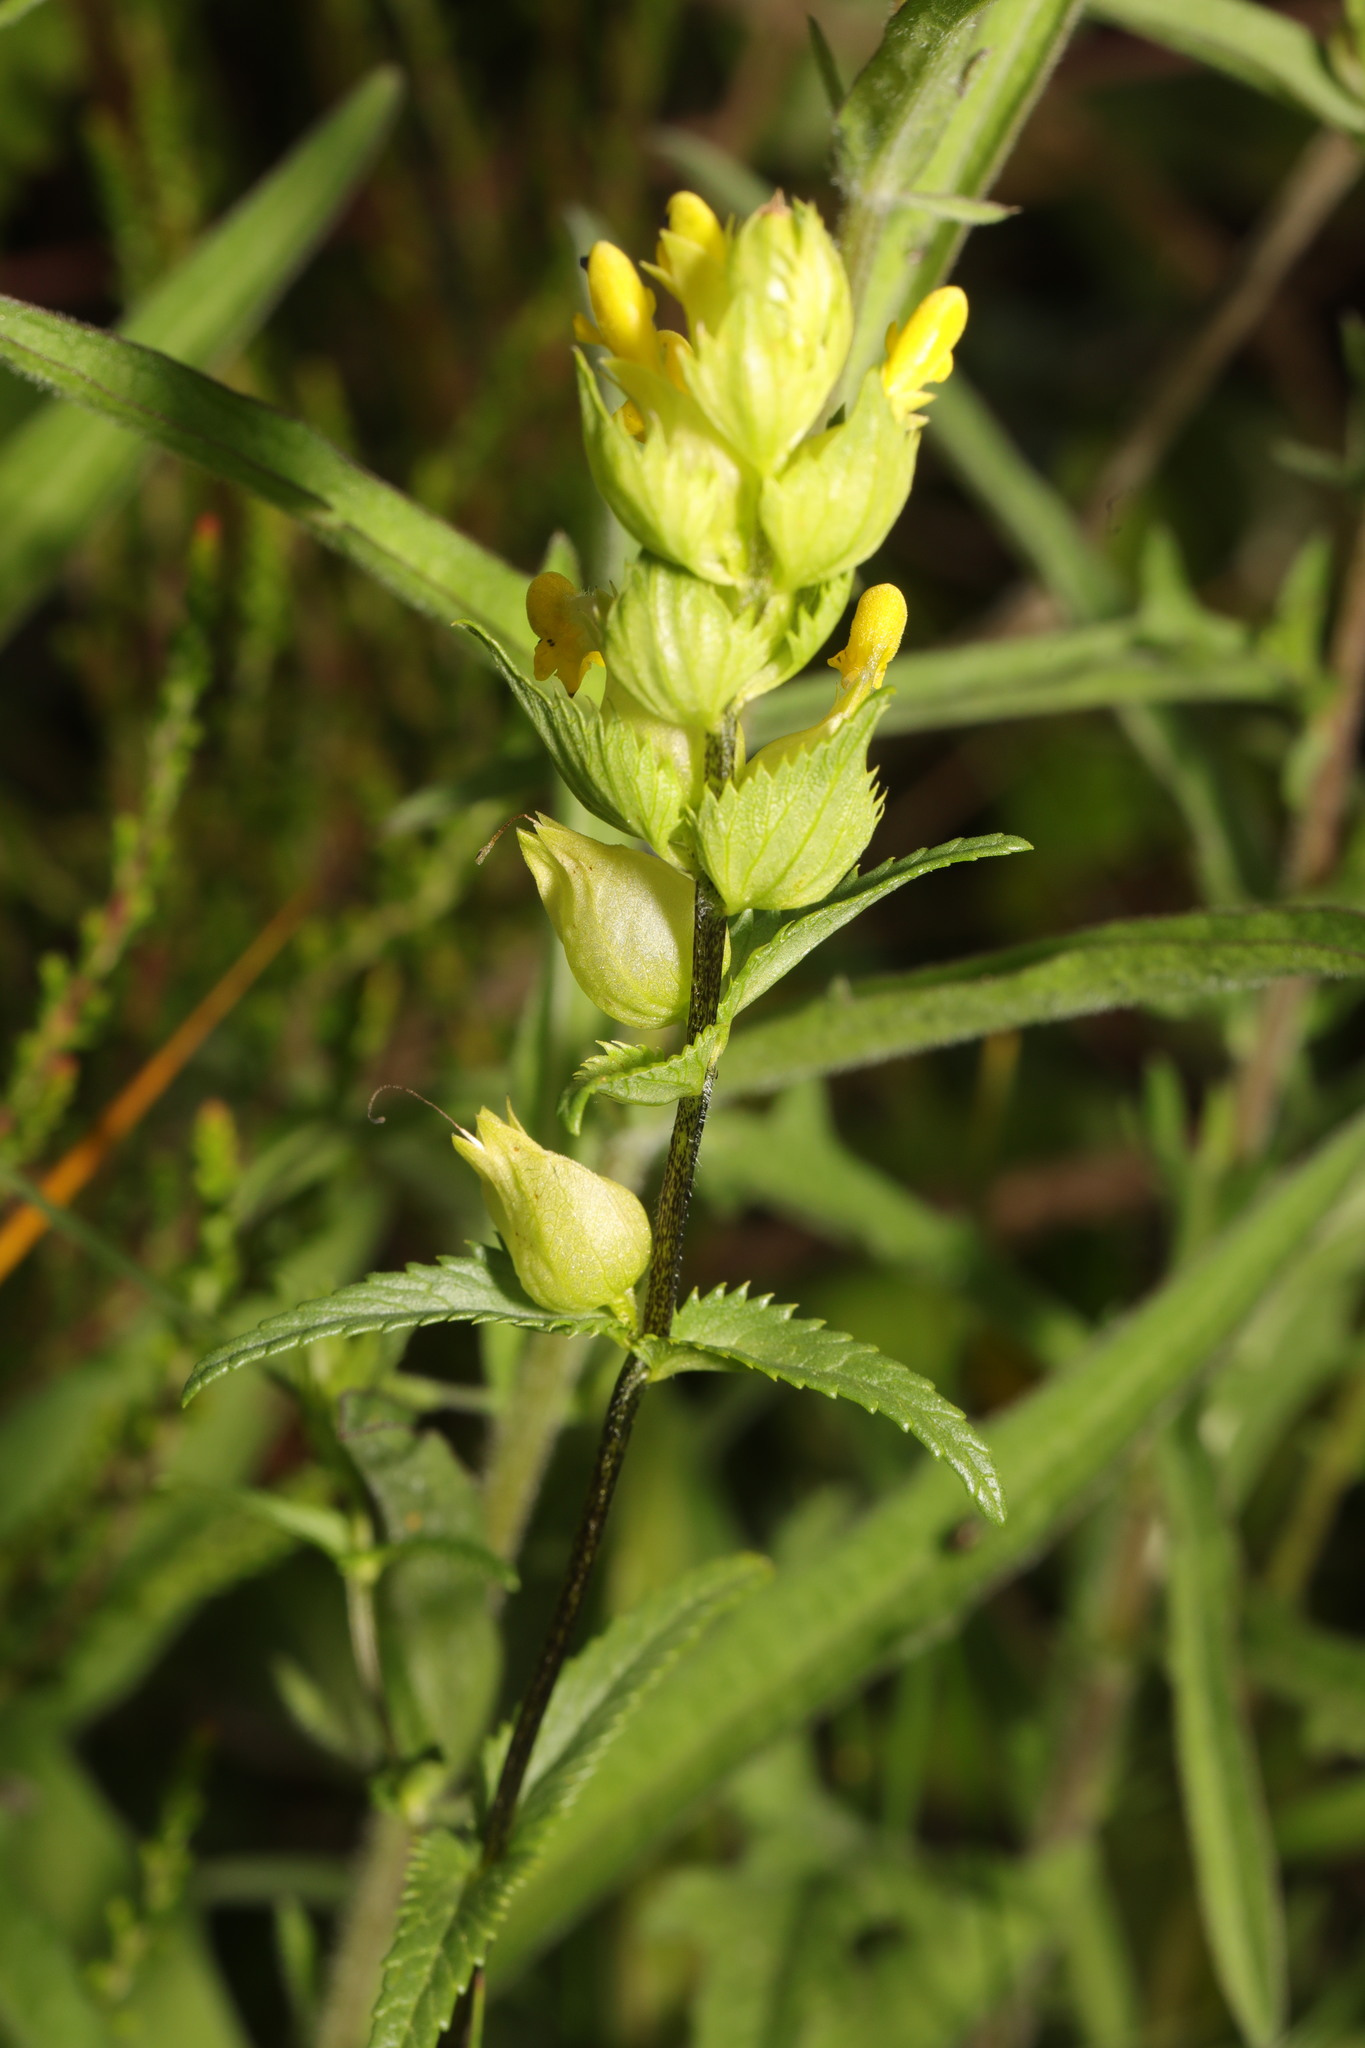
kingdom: Plantae
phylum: Tracheophyta
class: Magnoliopsida
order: Lamiales
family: Orobanchaceae
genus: Rhinanthus
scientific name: Rhinanthus minor
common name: Yellow-rattle
